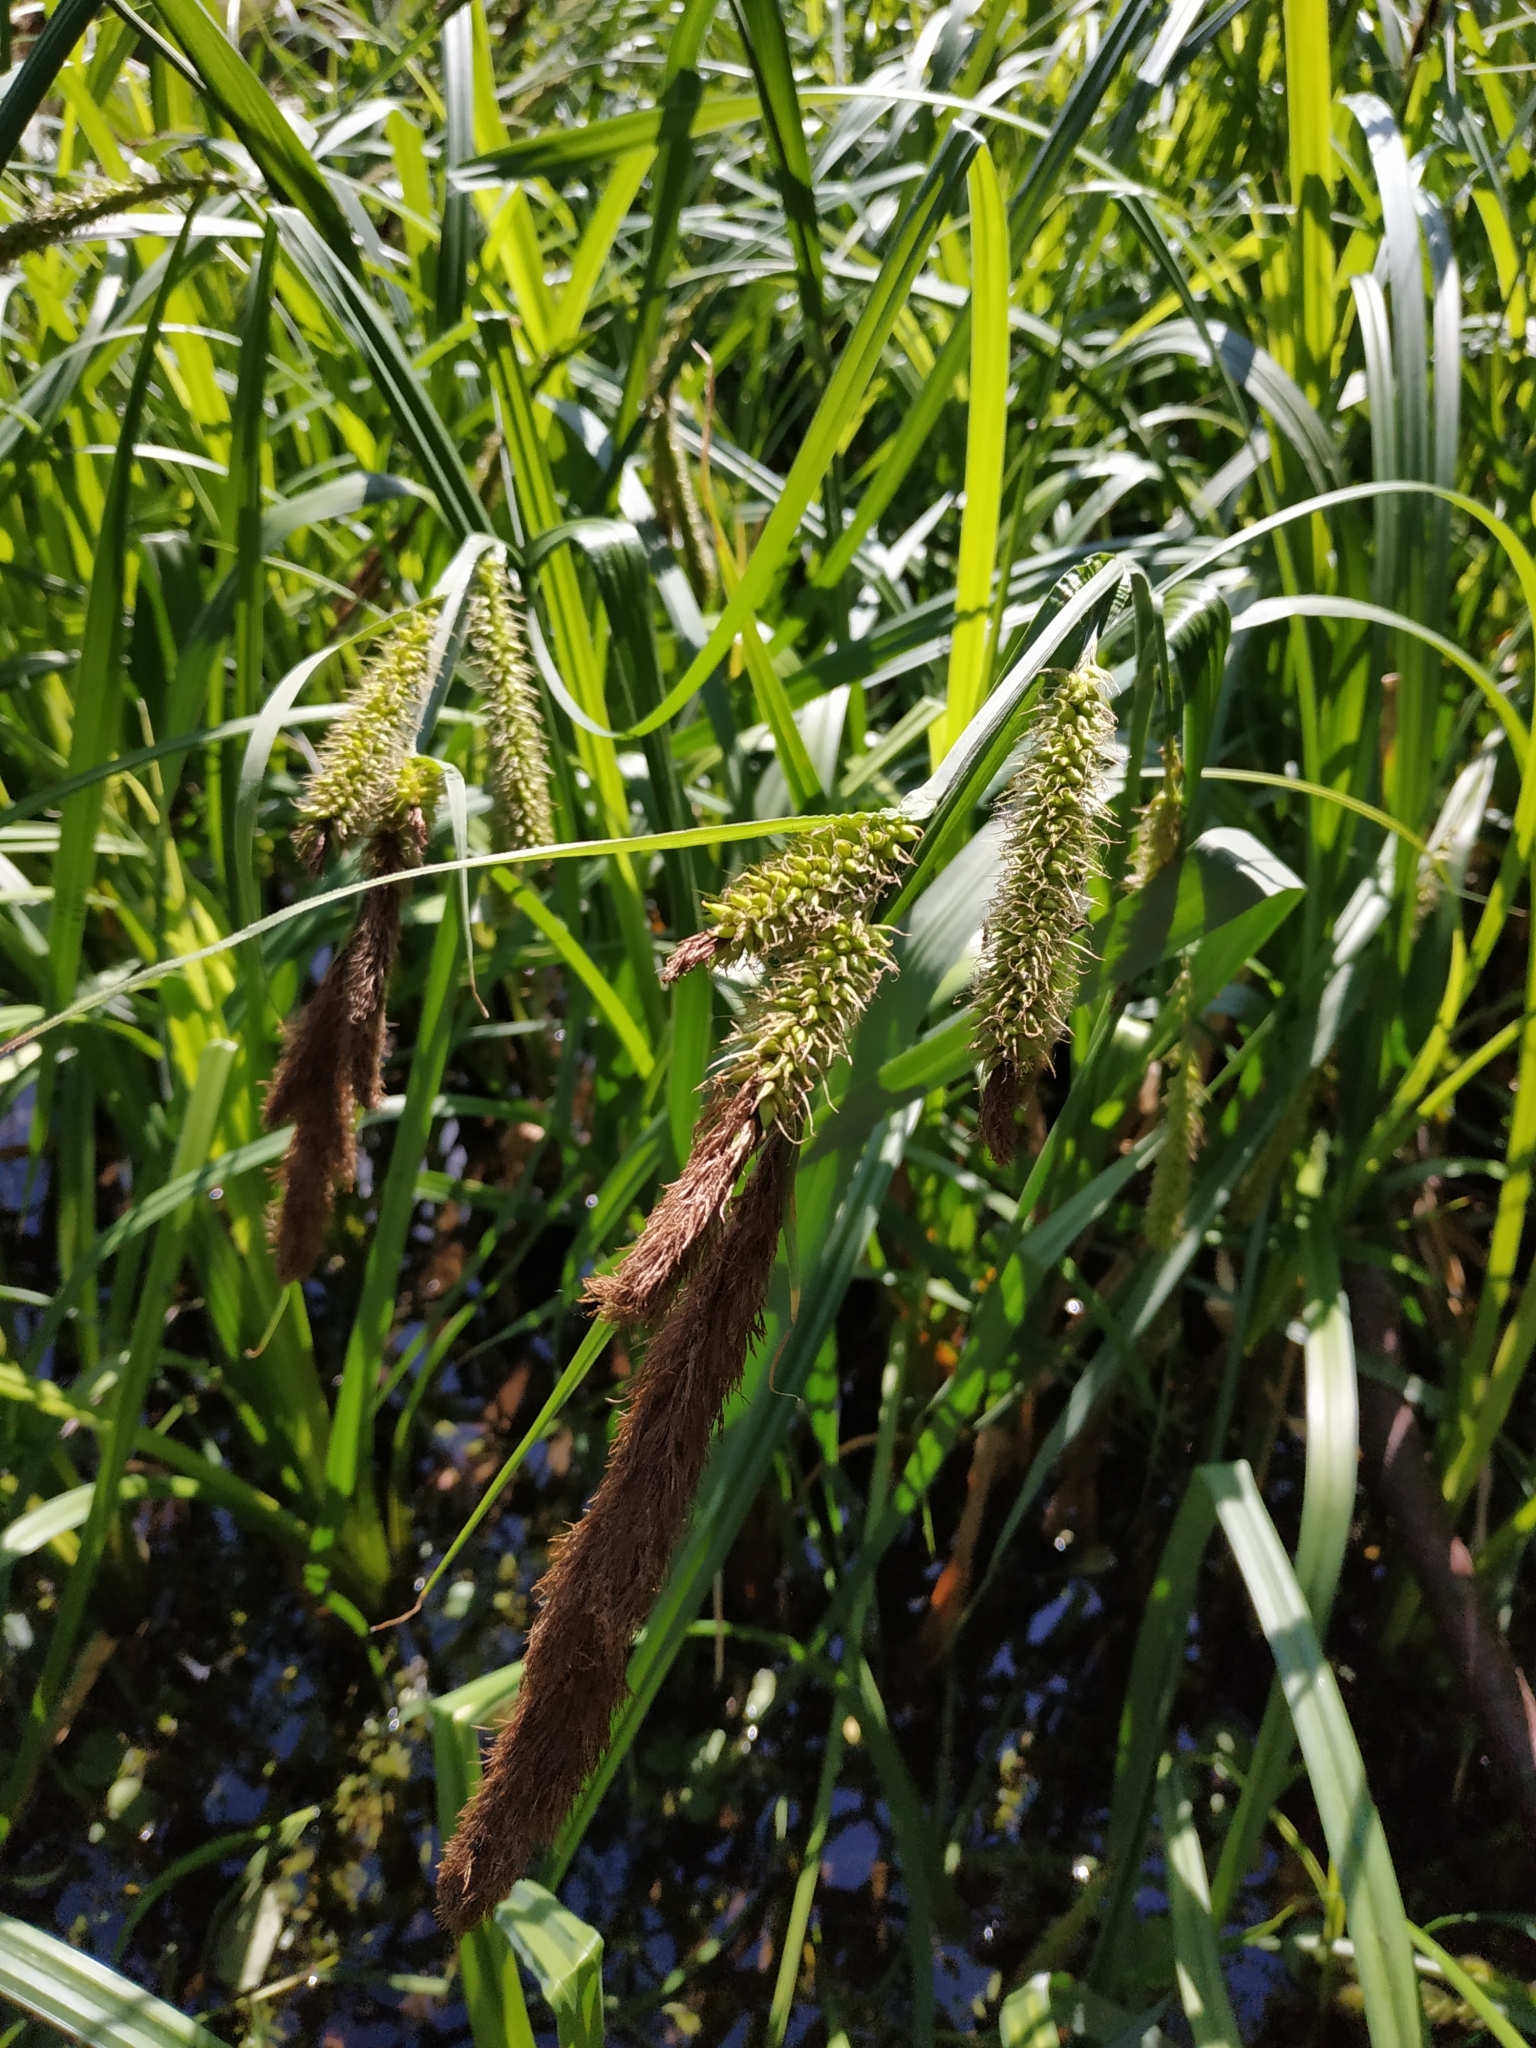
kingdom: Plantae
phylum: Tracheophyta
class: Liliopsida
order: Poales
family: Cyperaceae
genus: Carex
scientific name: Carex riparia
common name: Greater pond-sedge
